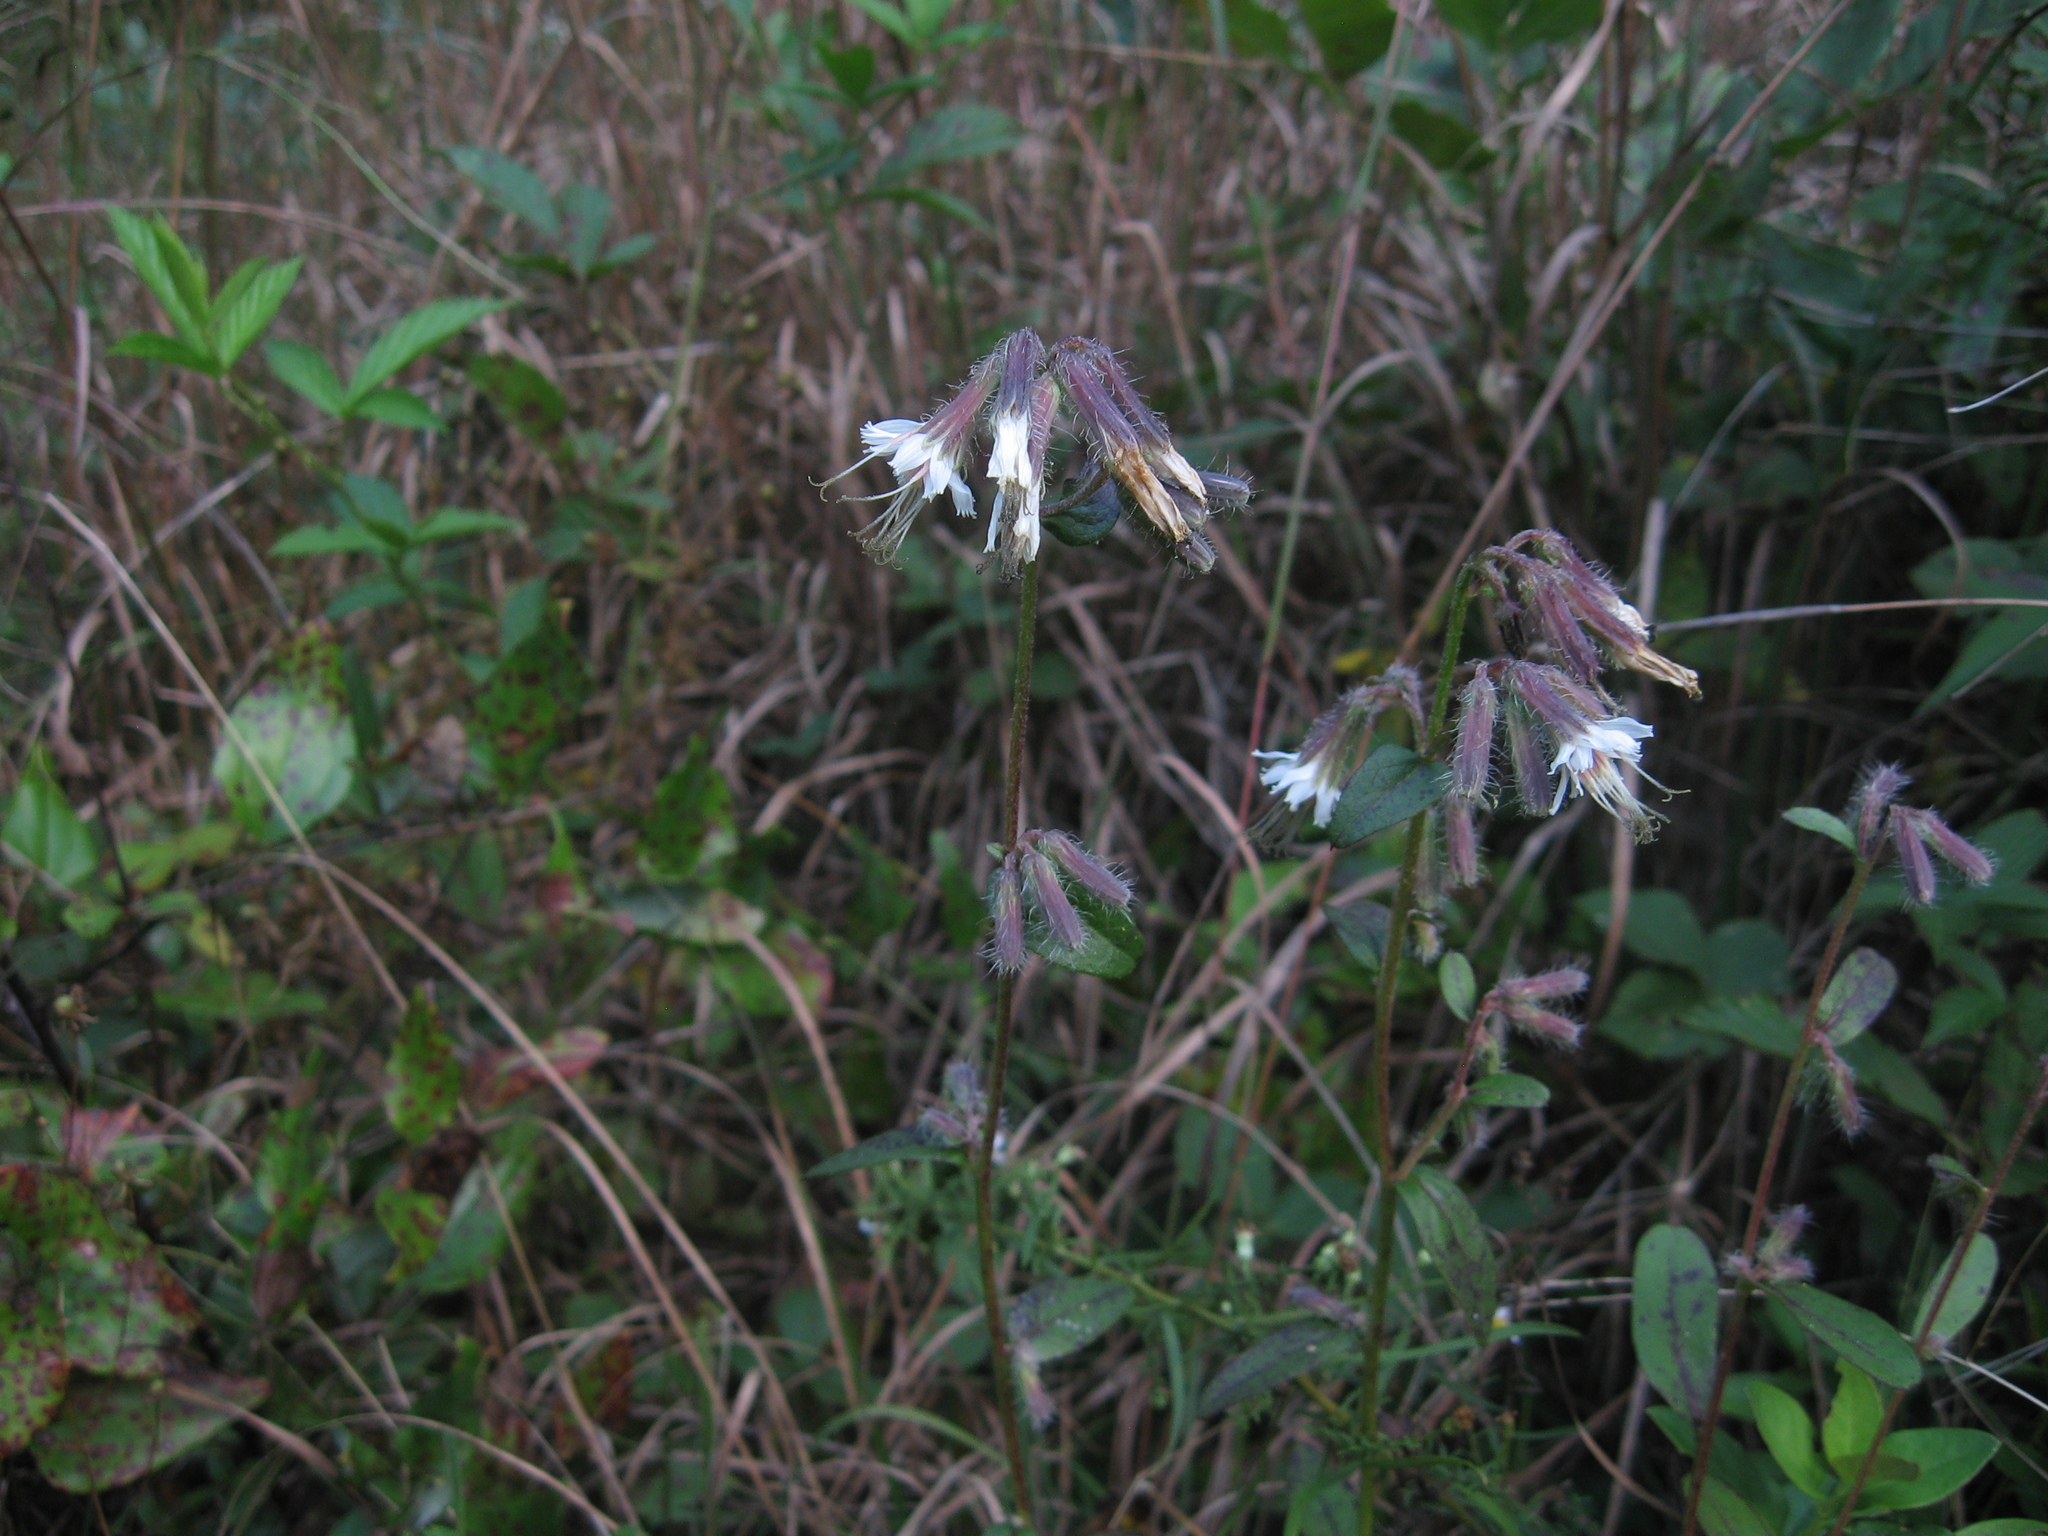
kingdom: Plantae
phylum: Tracheophyta
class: Magnoliopsida
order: Asterales
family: Asteraceae
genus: Nabalus
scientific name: Nabalus barbata
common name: Barbed rattlesnakeroot
